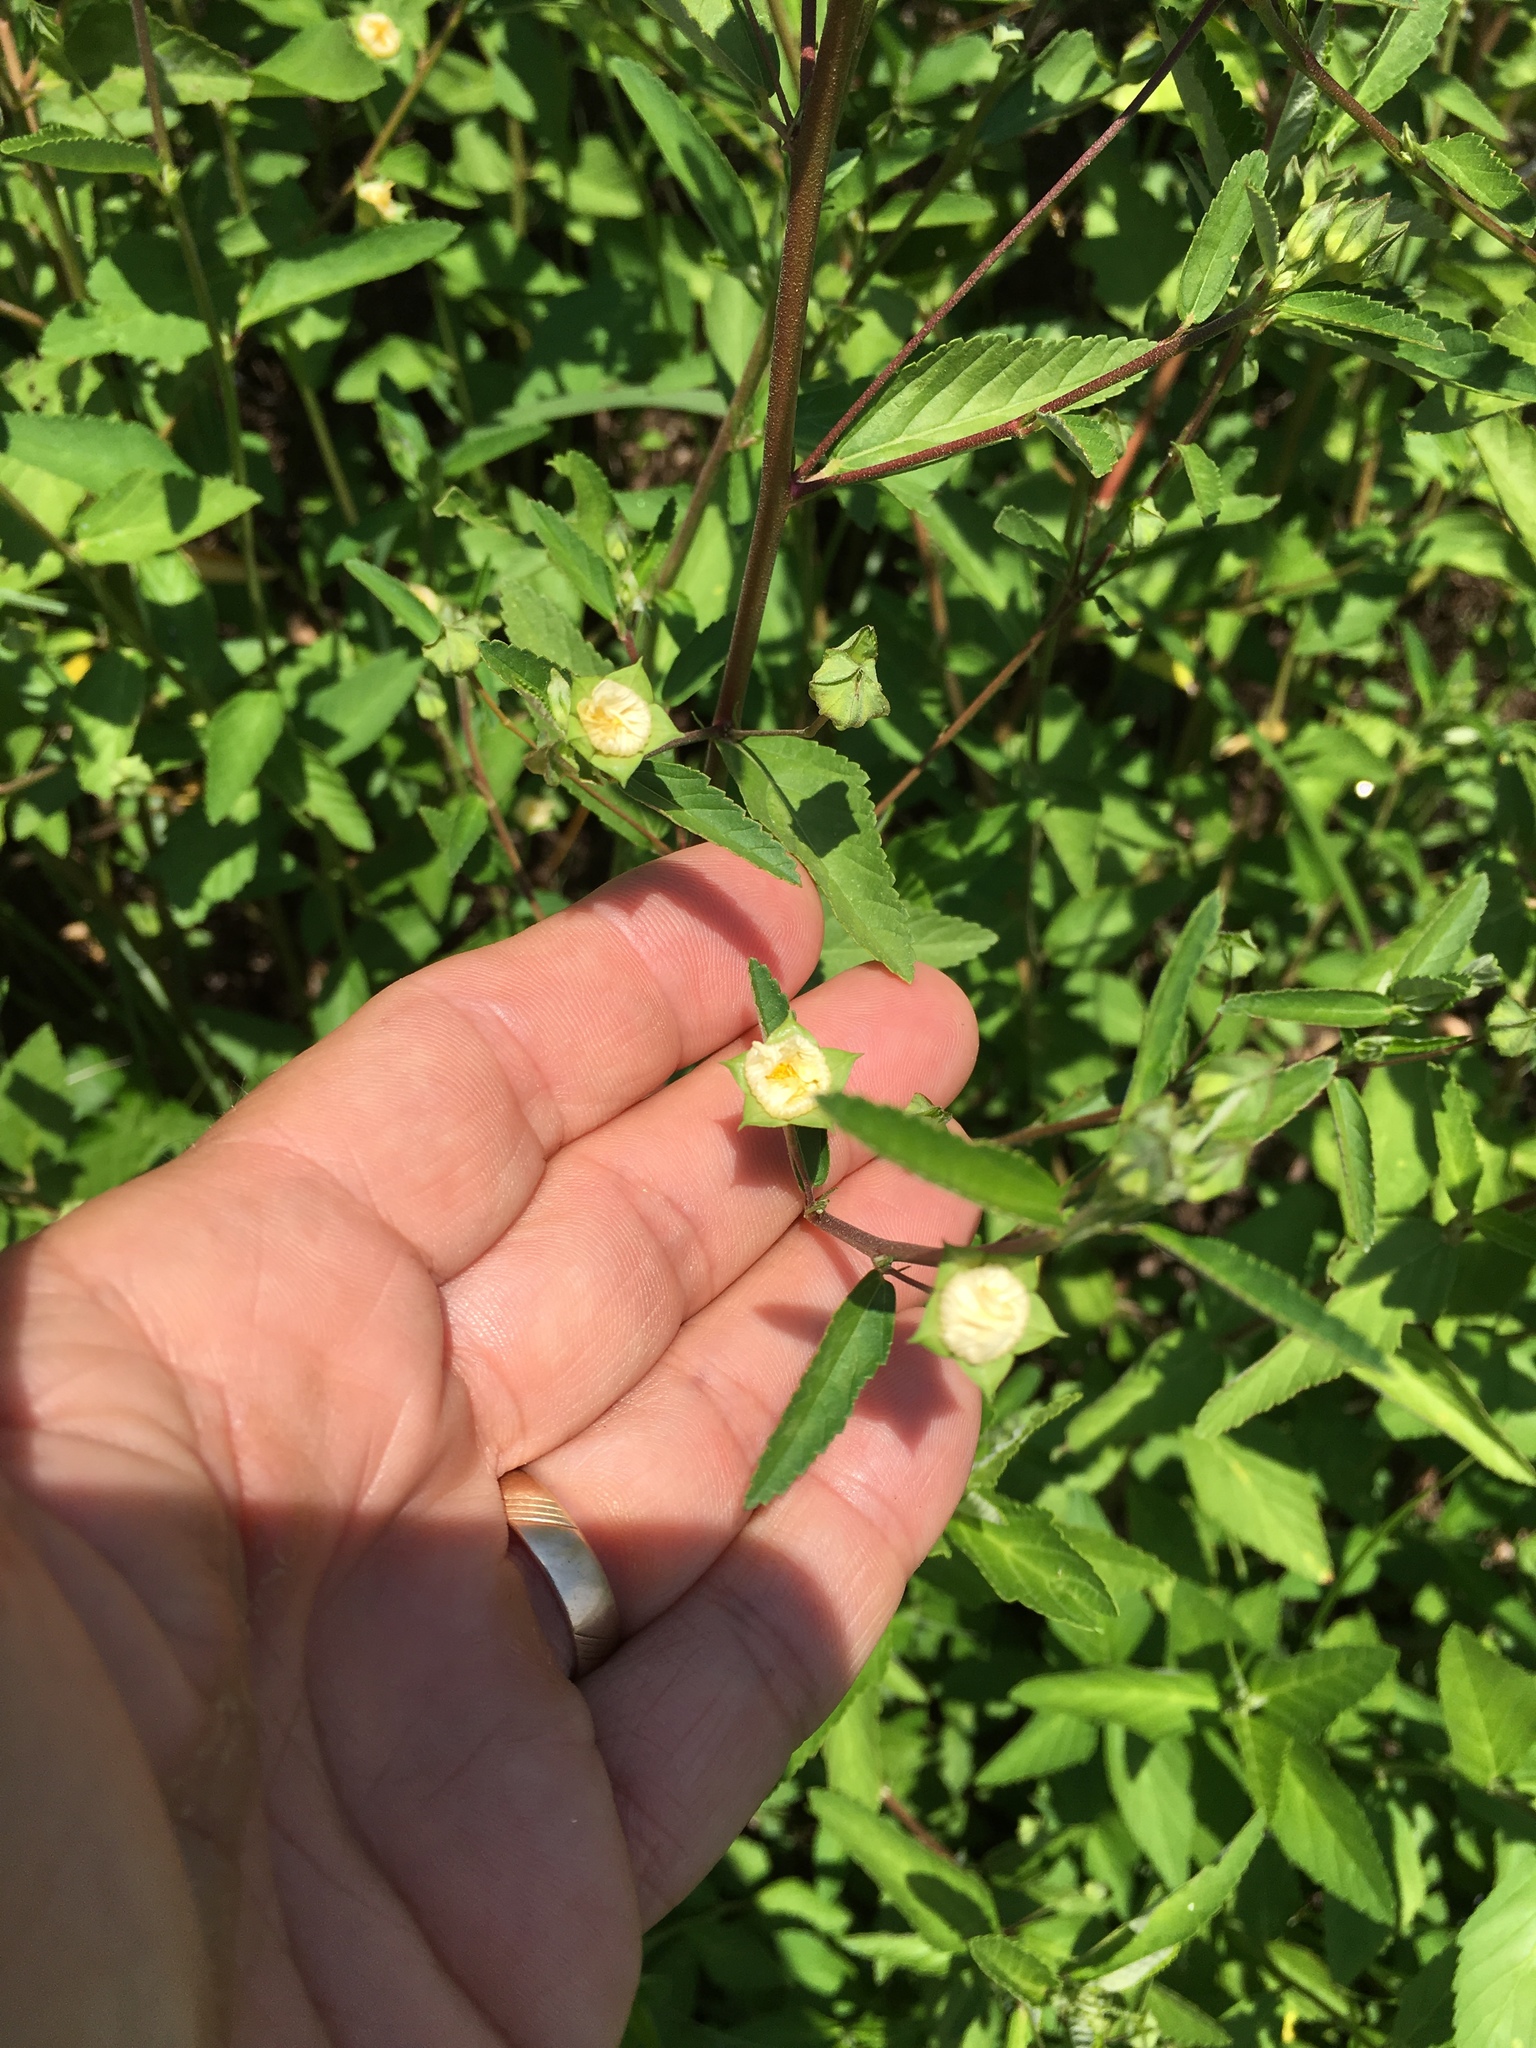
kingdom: Plantae
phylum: Tracheophyta
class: Magnoliopsida
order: Malvales
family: Malvaceae
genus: Sida
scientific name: Sida rhombifolia
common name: Queensland-hemp
